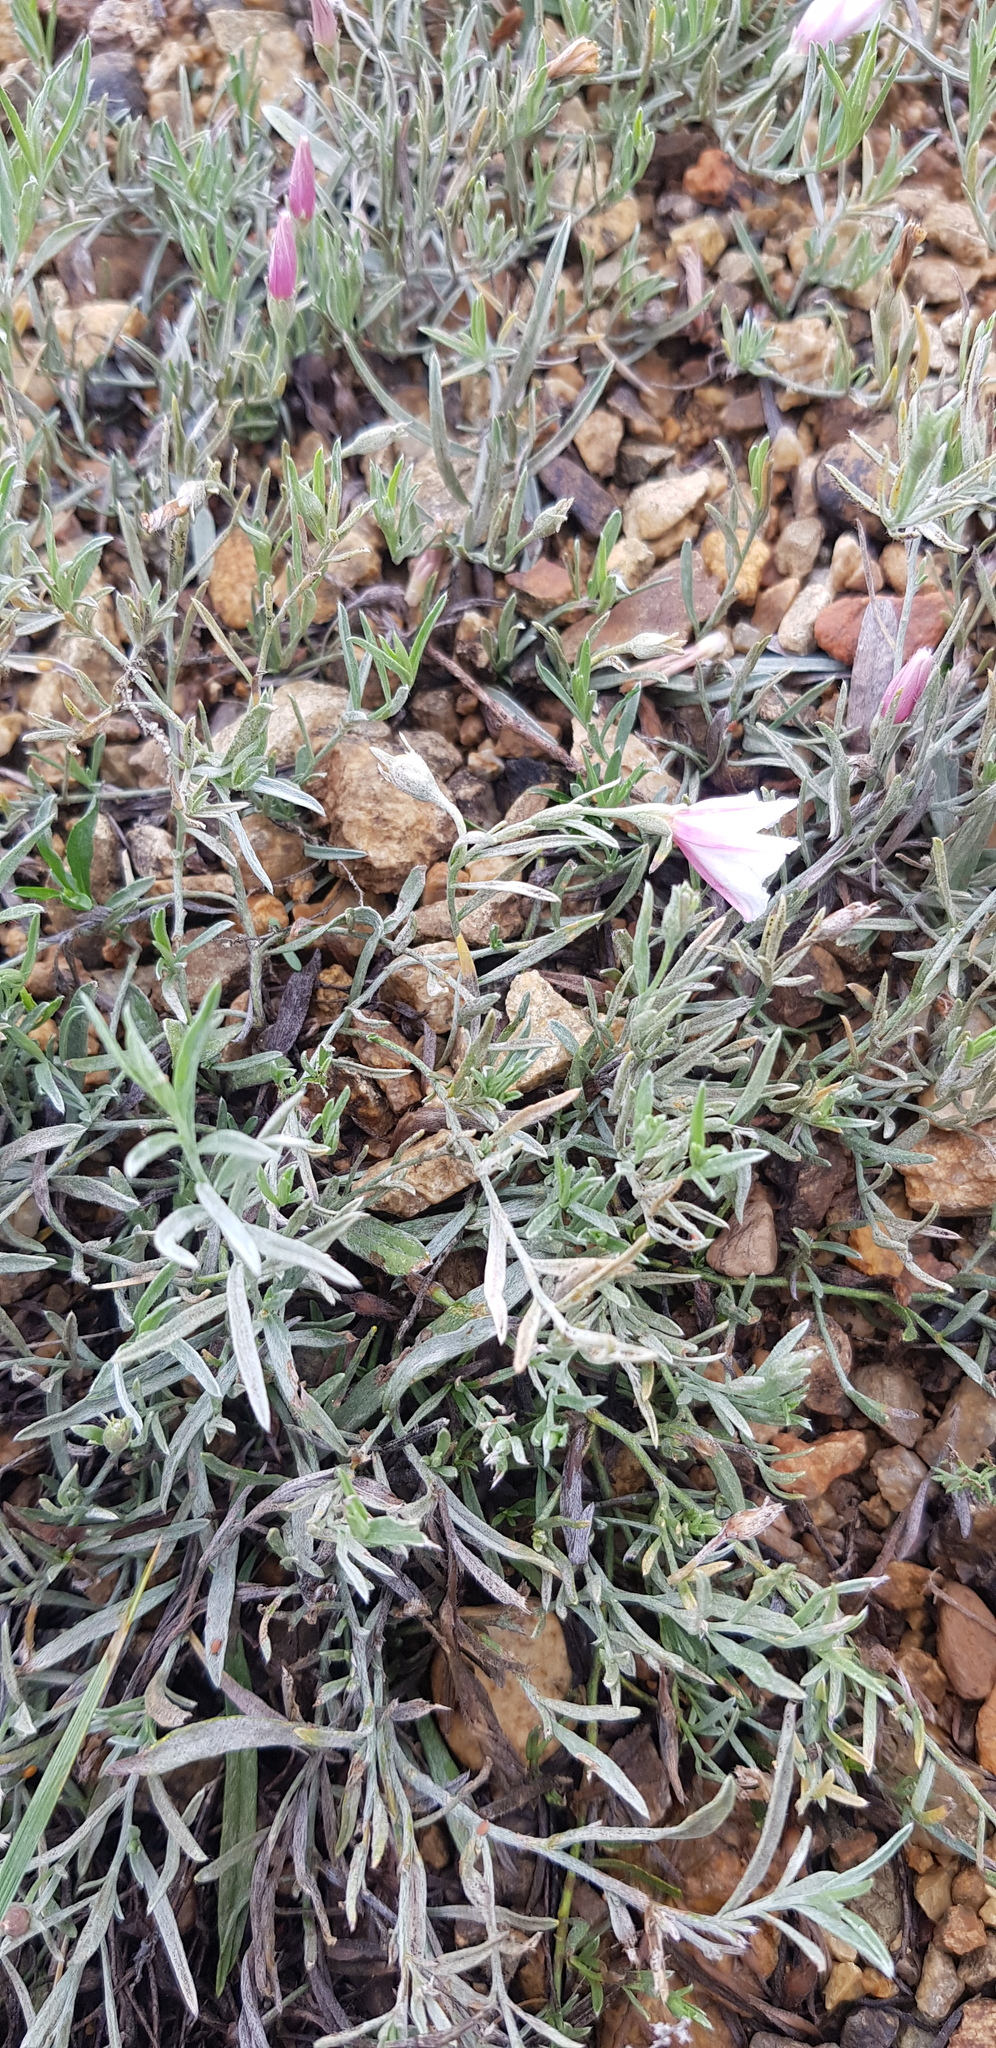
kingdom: Plantae
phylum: Tracheophyta
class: Magnoliopsida
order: Solanales
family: Convolvulaceae
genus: Convolvulus
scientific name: Convolvulus ammannii
